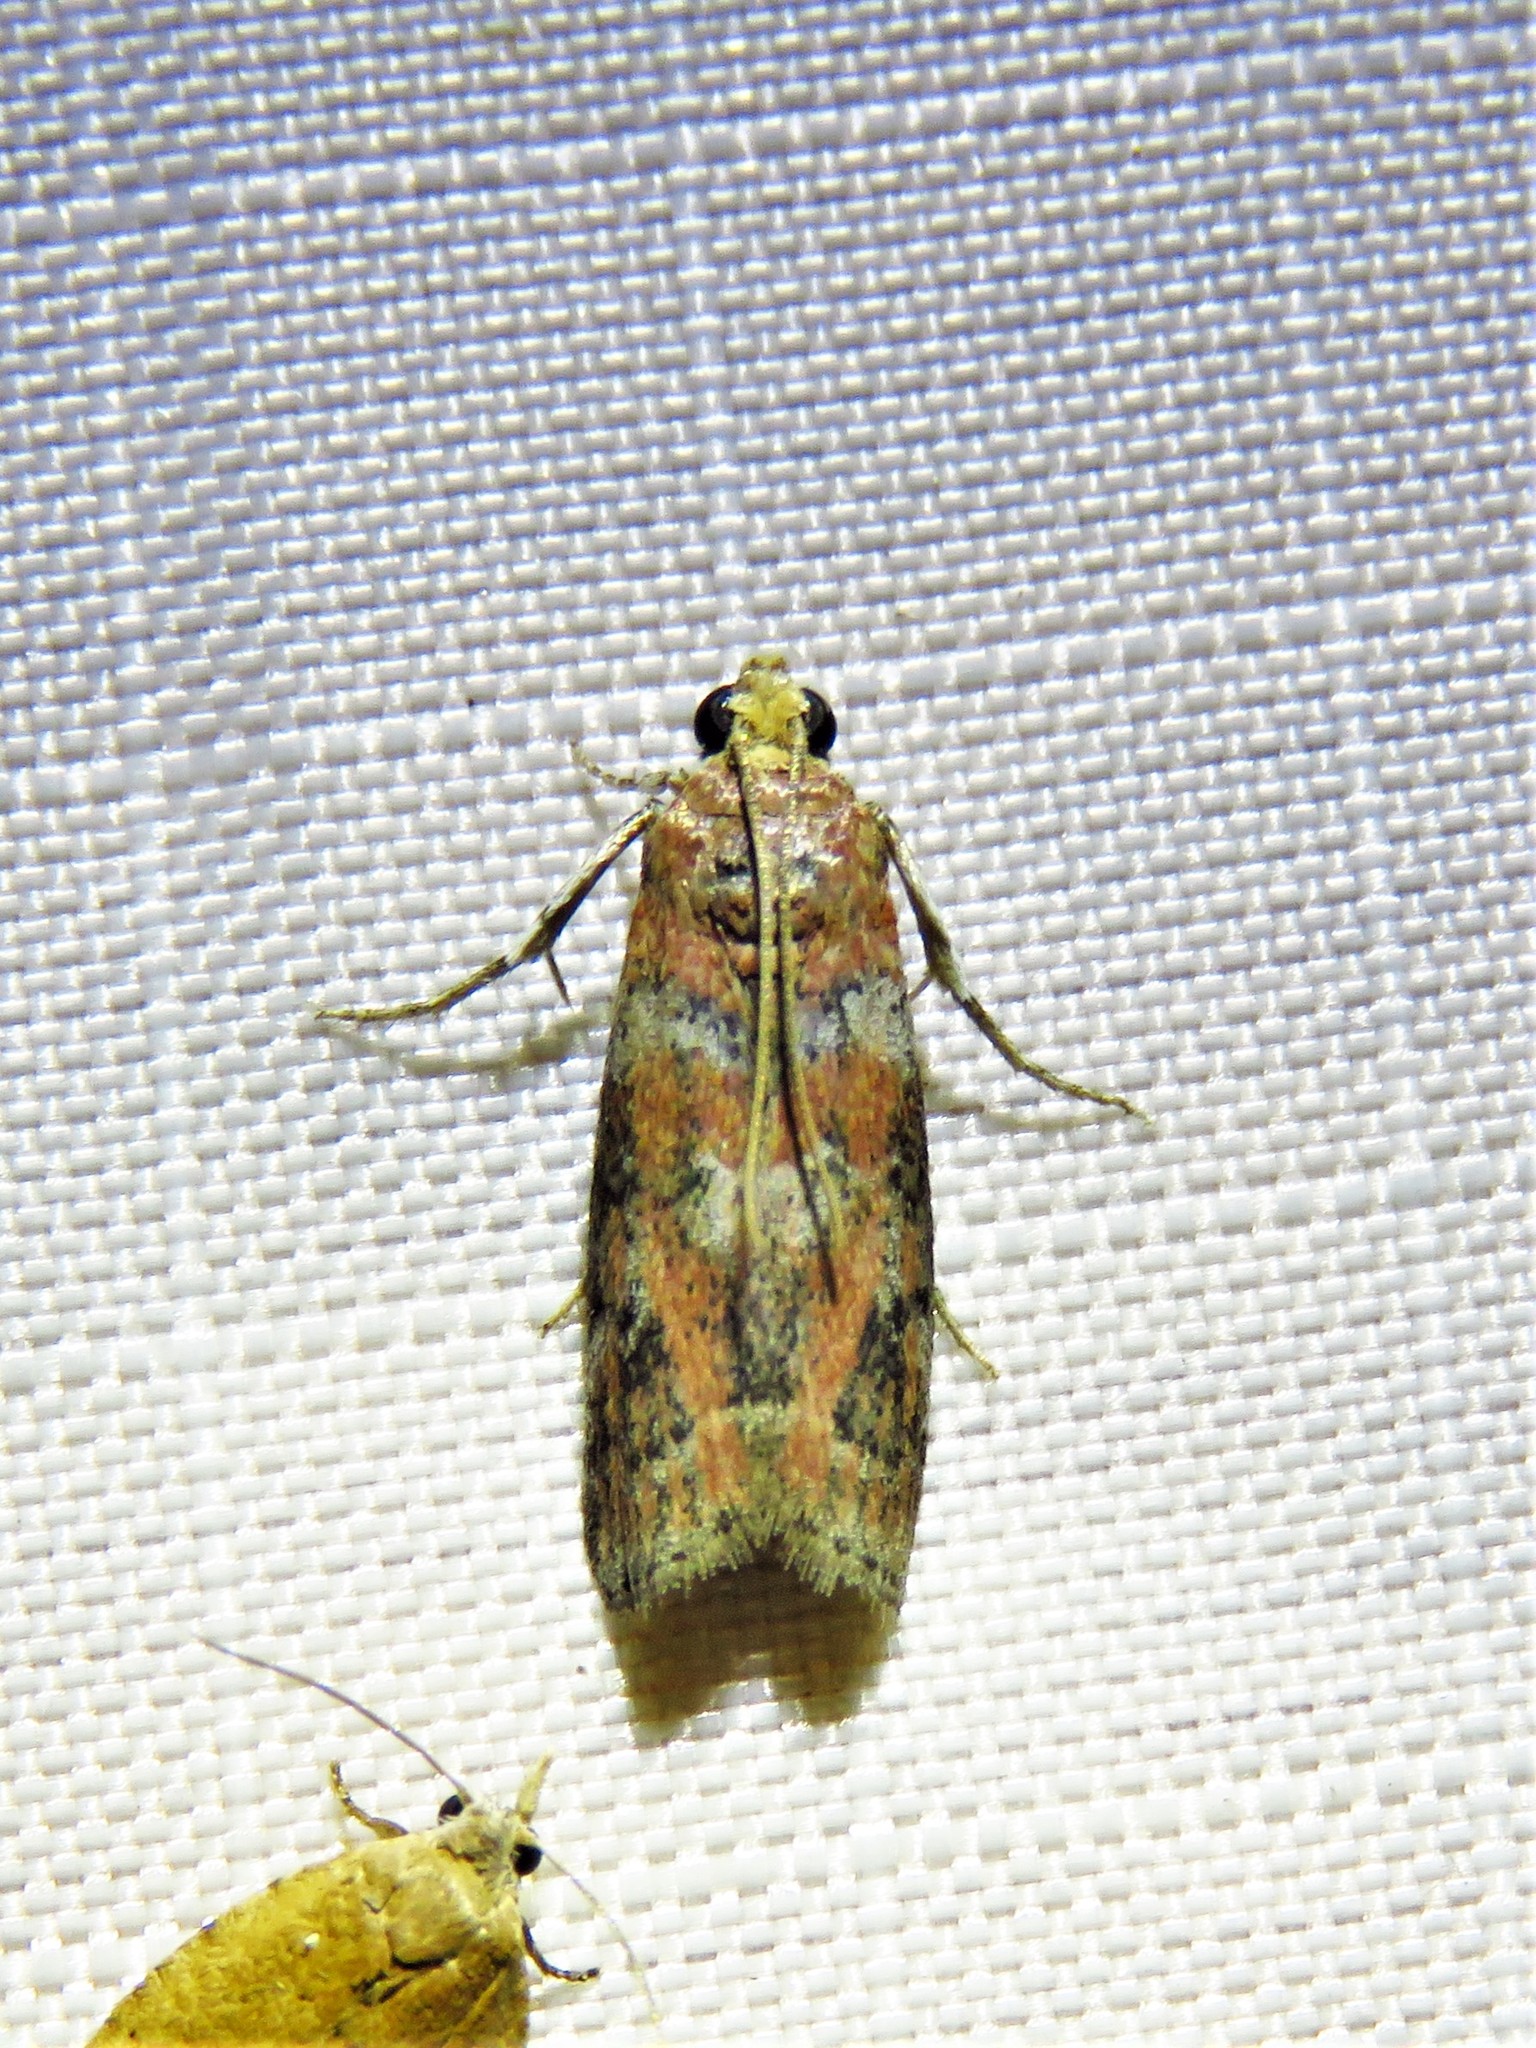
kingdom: Animalia
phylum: Arthropoda
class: Insecta
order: Lepidoptera
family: Pyralidae
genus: Sciota
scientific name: Sciota
